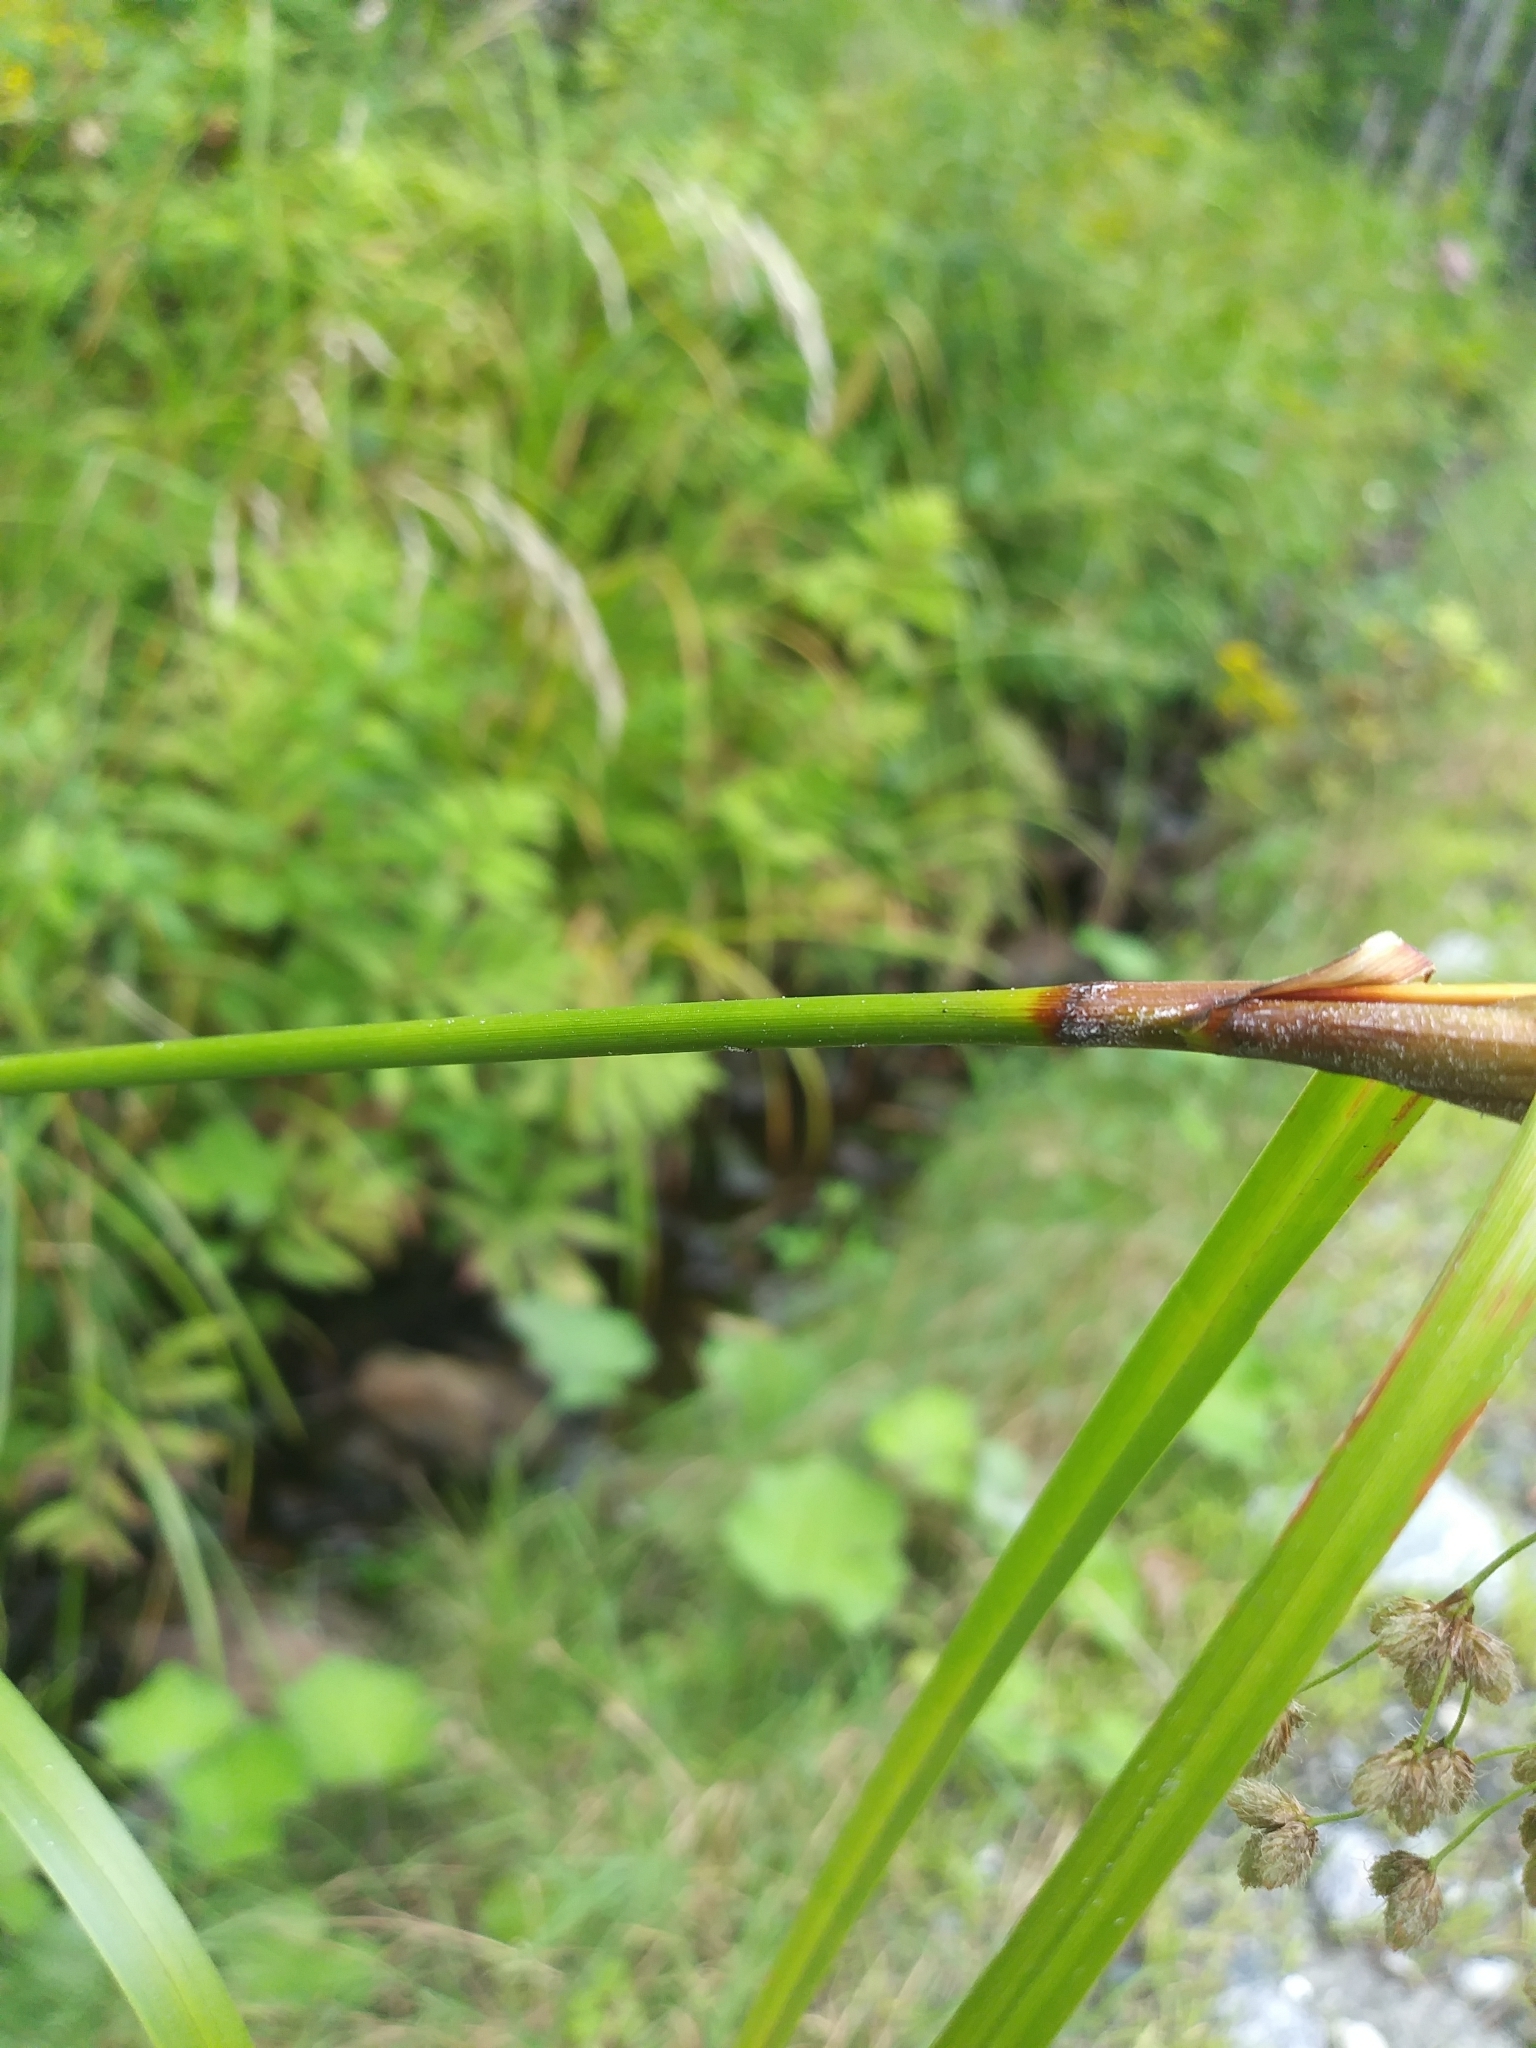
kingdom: Plantae
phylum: Tracheophyta
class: Liliopsida
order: Poales
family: Cyperaceae
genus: Scirpus
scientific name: Scirpus cyperinus
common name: Black-sheathed bulrush
